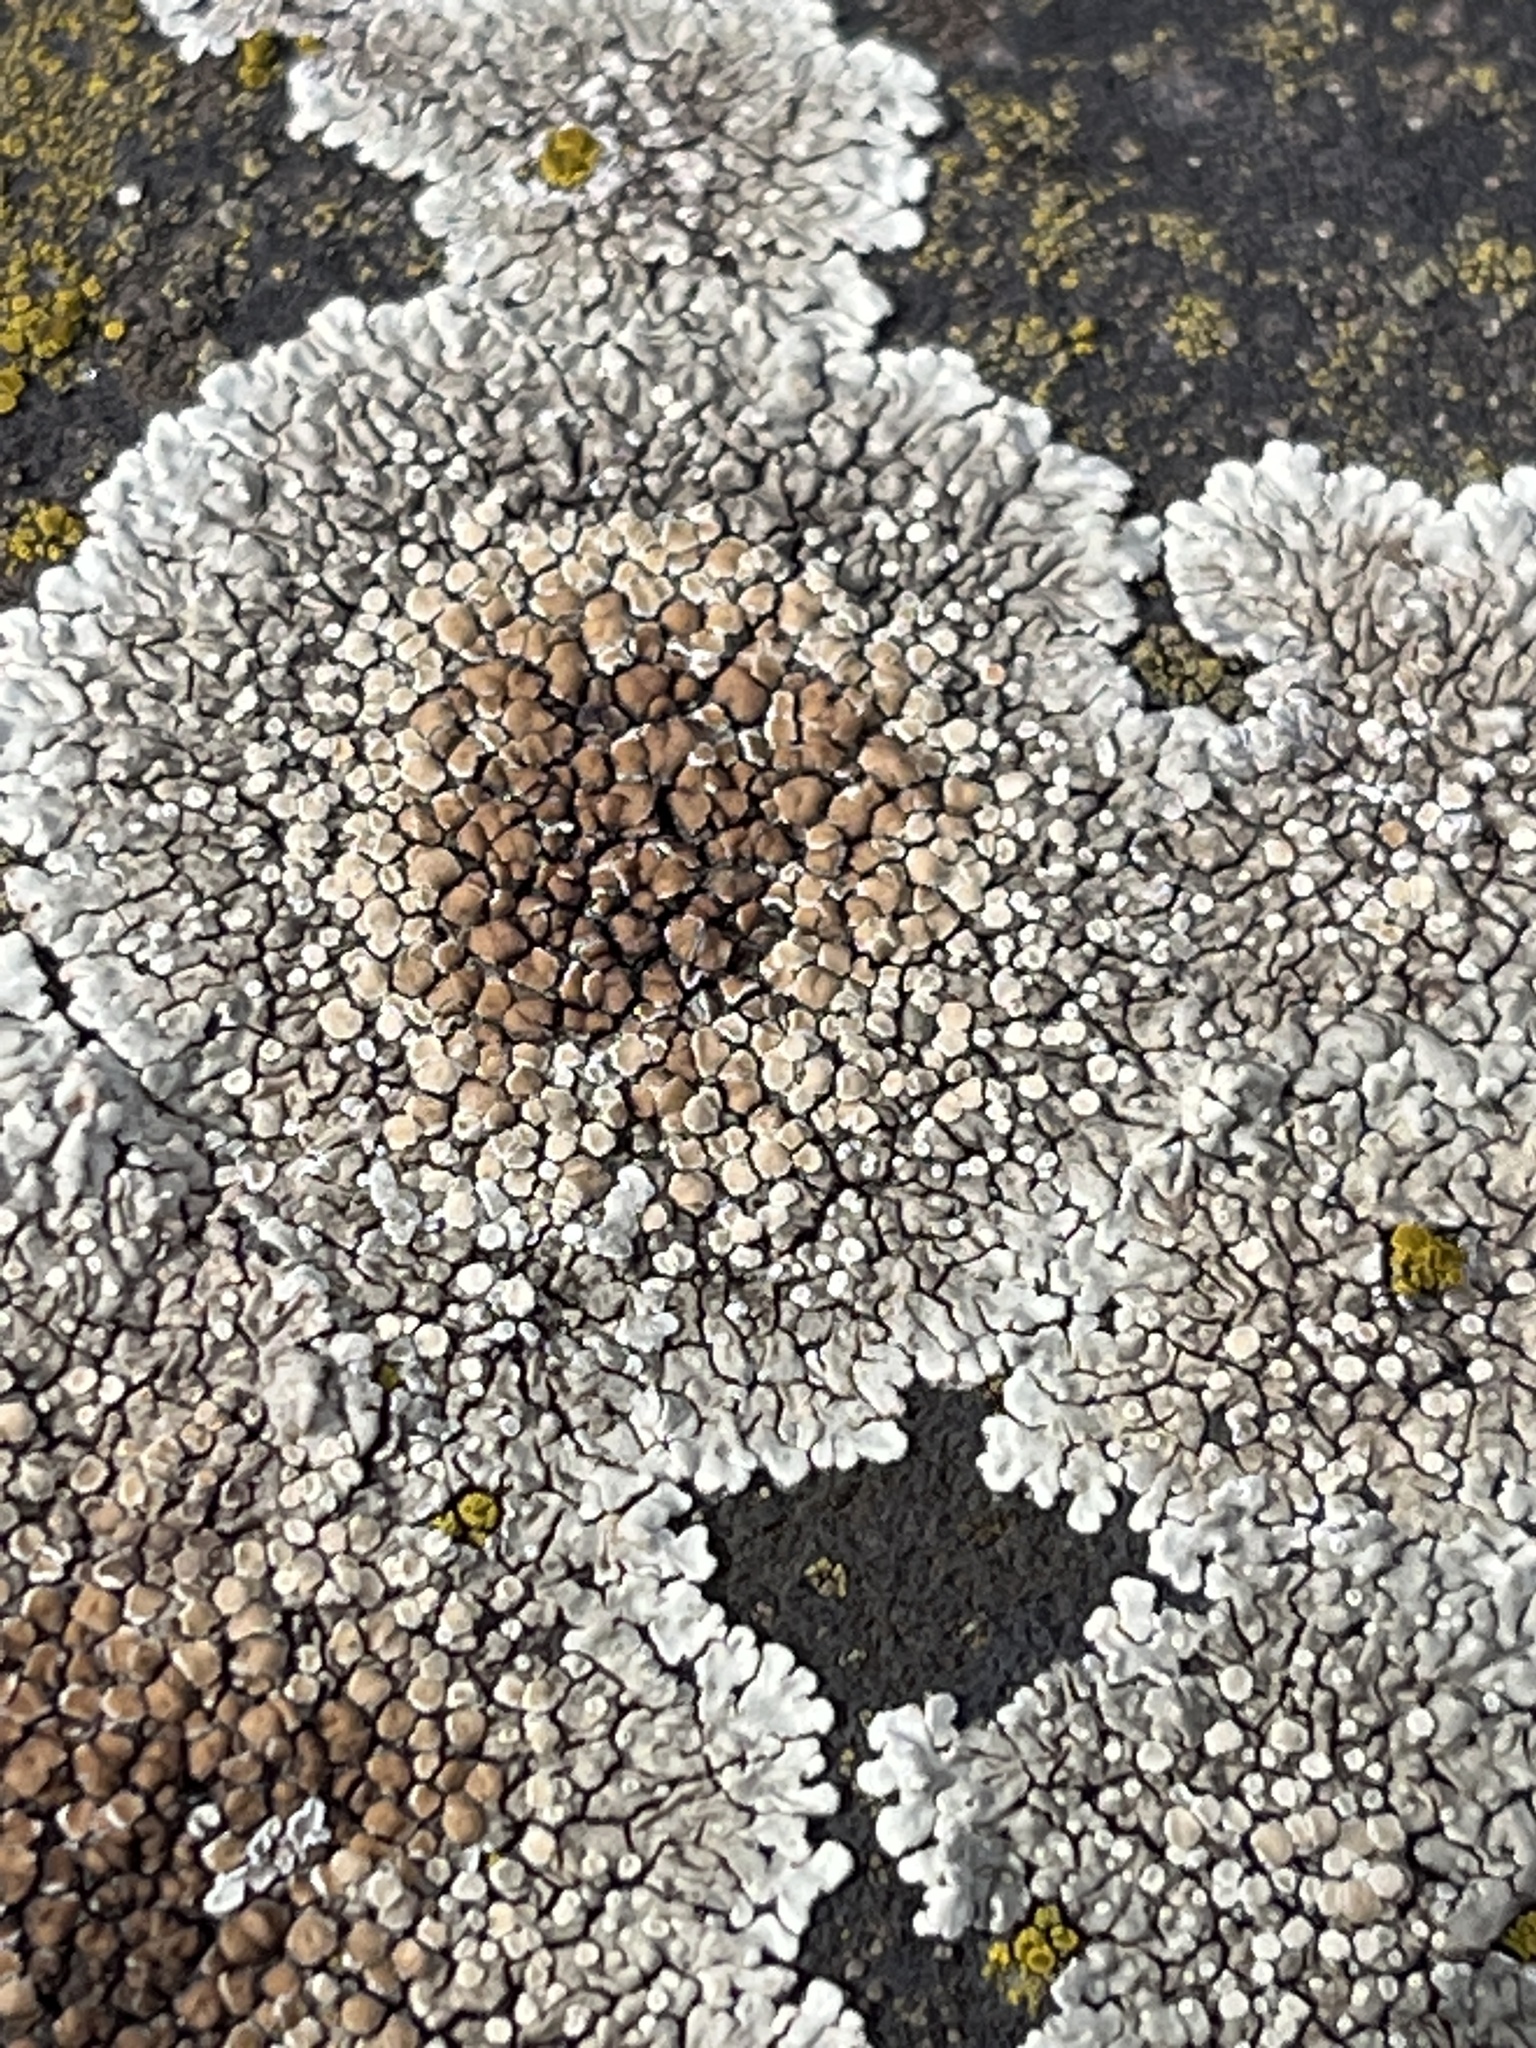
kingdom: Fungi
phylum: Ascomycota
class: Lecanoromycetes
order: Lecanorales
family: Lecanoraceae
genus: Protoparmeliopsis
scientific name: Protoparmeliopsis muralis
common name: Stonewall rim lichen
